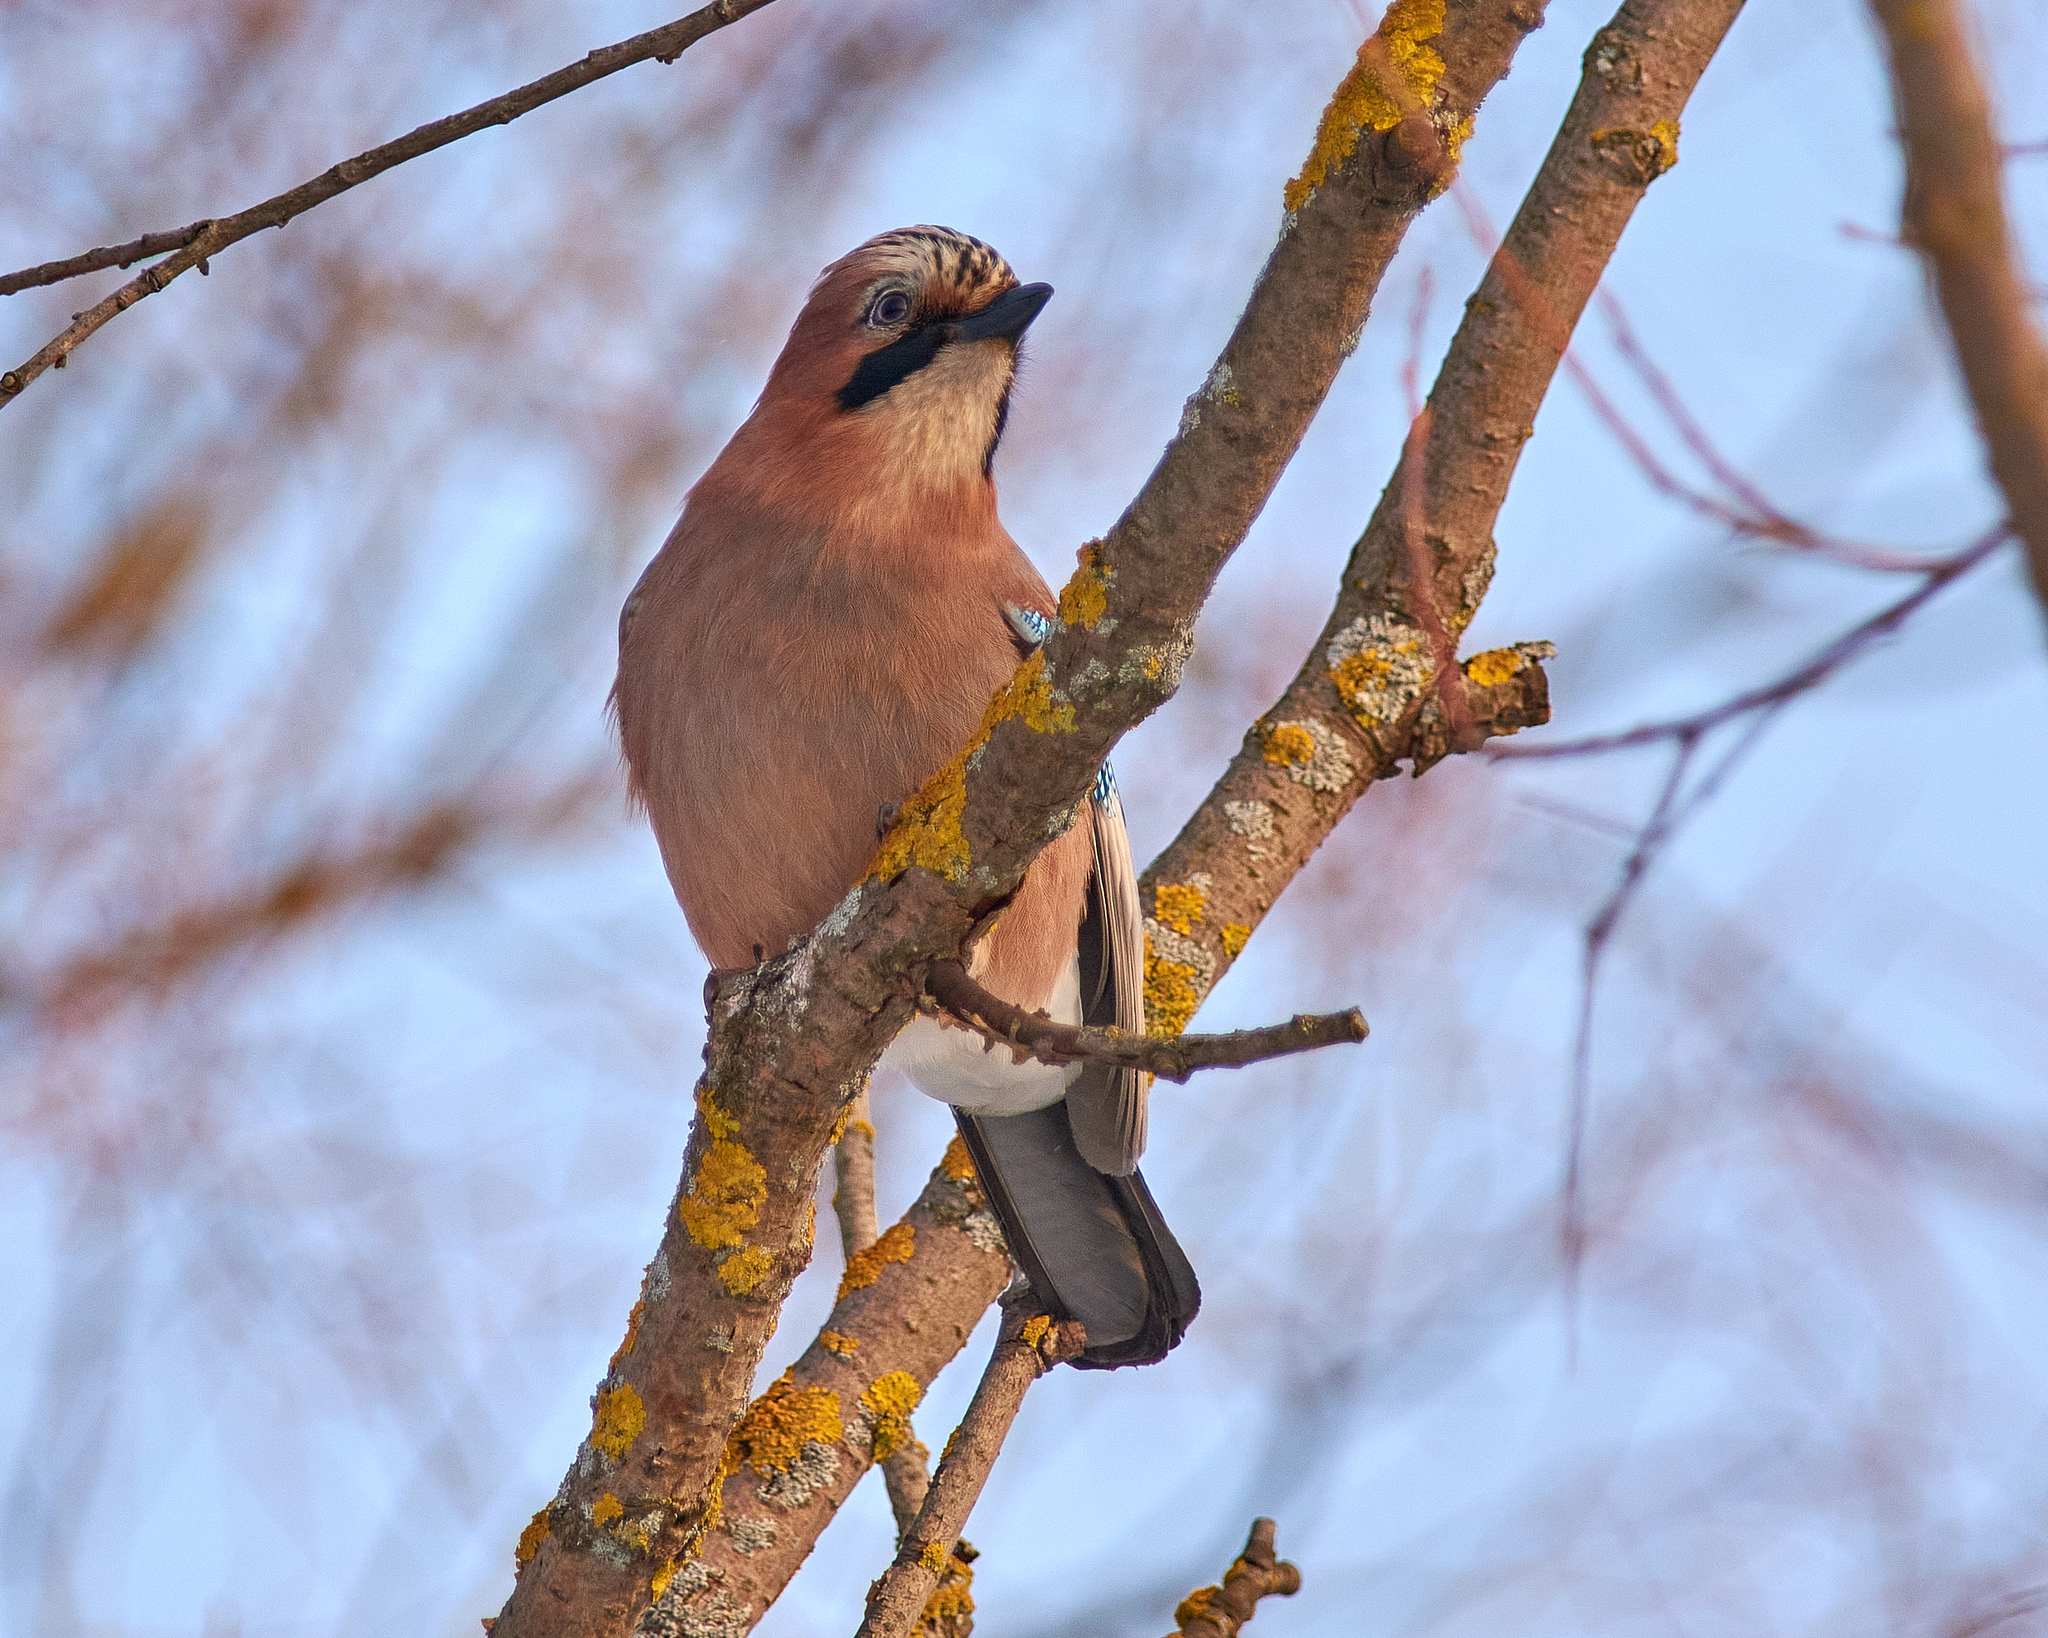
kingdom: Animalia
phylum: Chordata
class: Aves
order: Passeriformes
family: Corvidae
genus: Garrulus
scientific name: Garrulus glandarius
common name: Eurasian jay
